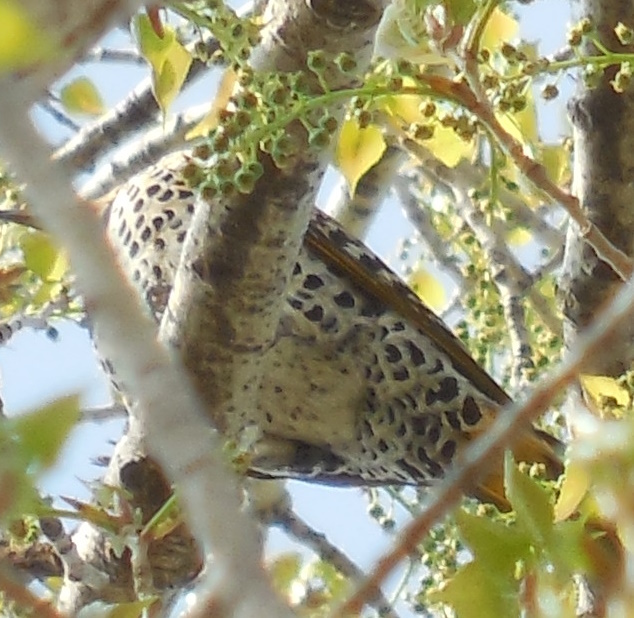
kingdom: Animalia
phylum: Chordata
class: Aves
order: Piciformes
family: Picidae
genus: Colaptes
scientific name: Colaptes auratus
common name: Northern flicker
